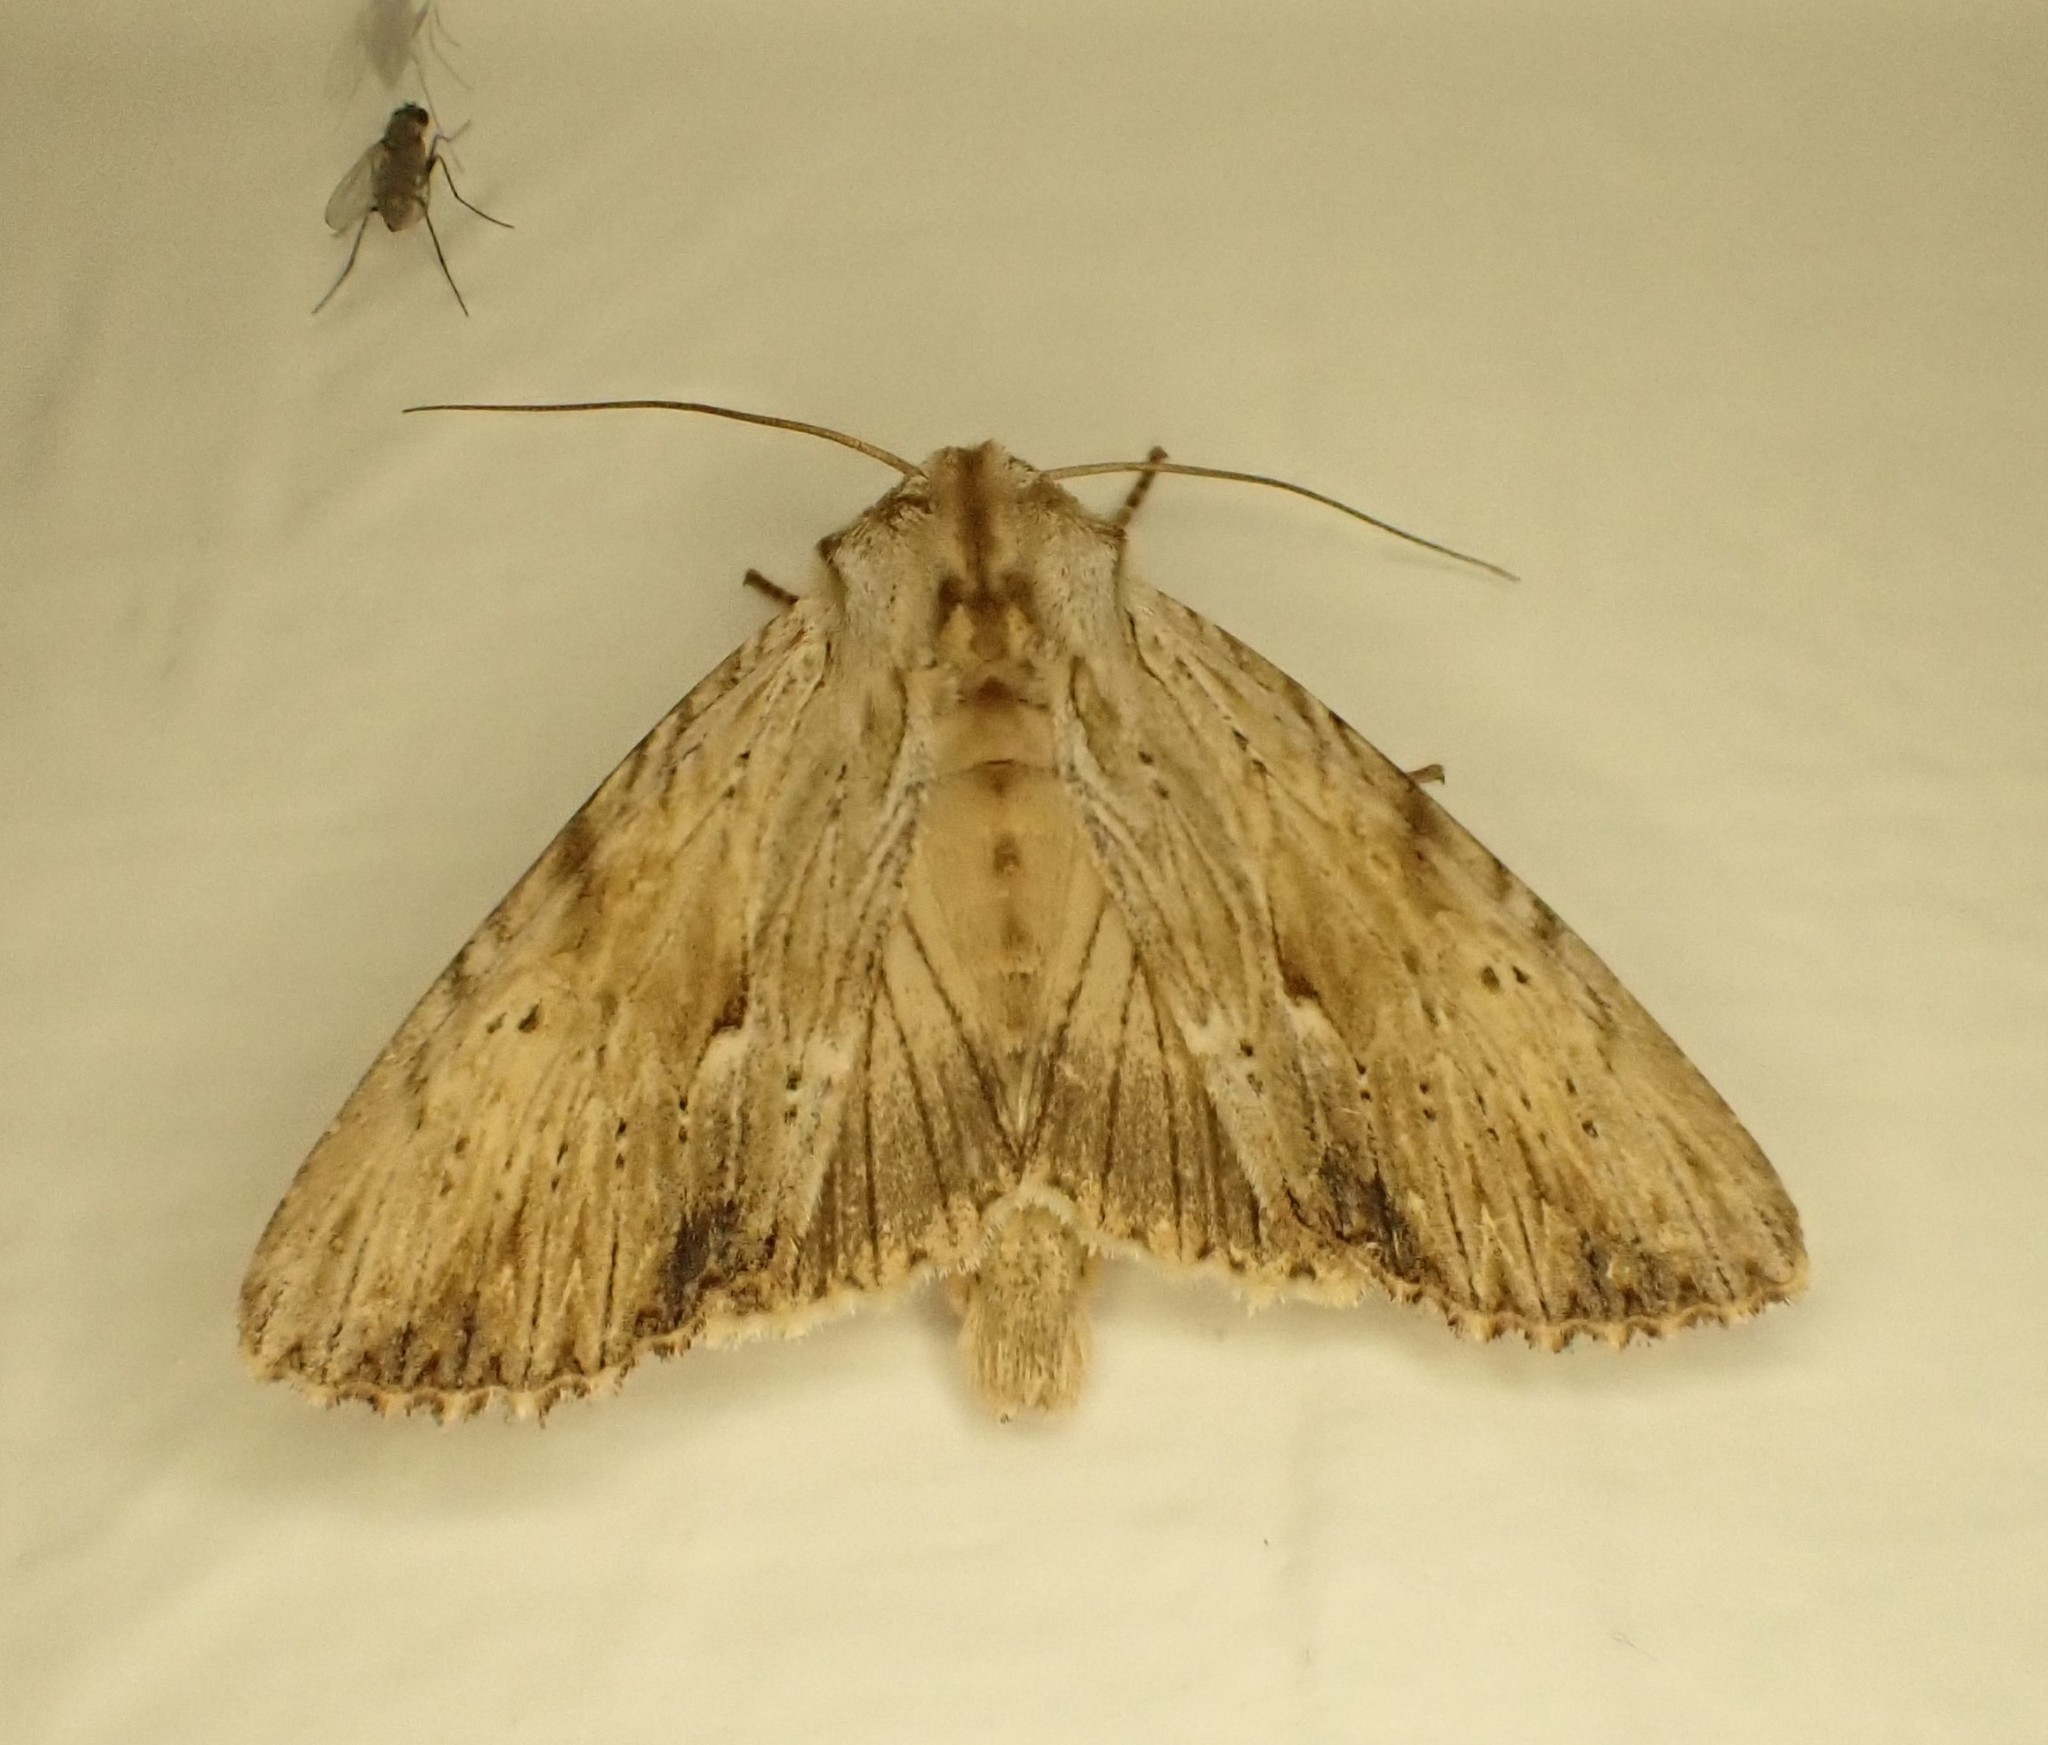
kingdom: Animalia
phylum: Arthropoda
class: Insecta
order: Lepidoptera
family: Noctuidae
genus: Apamea
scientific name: Apamea lithoxylaea
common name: Light arches
